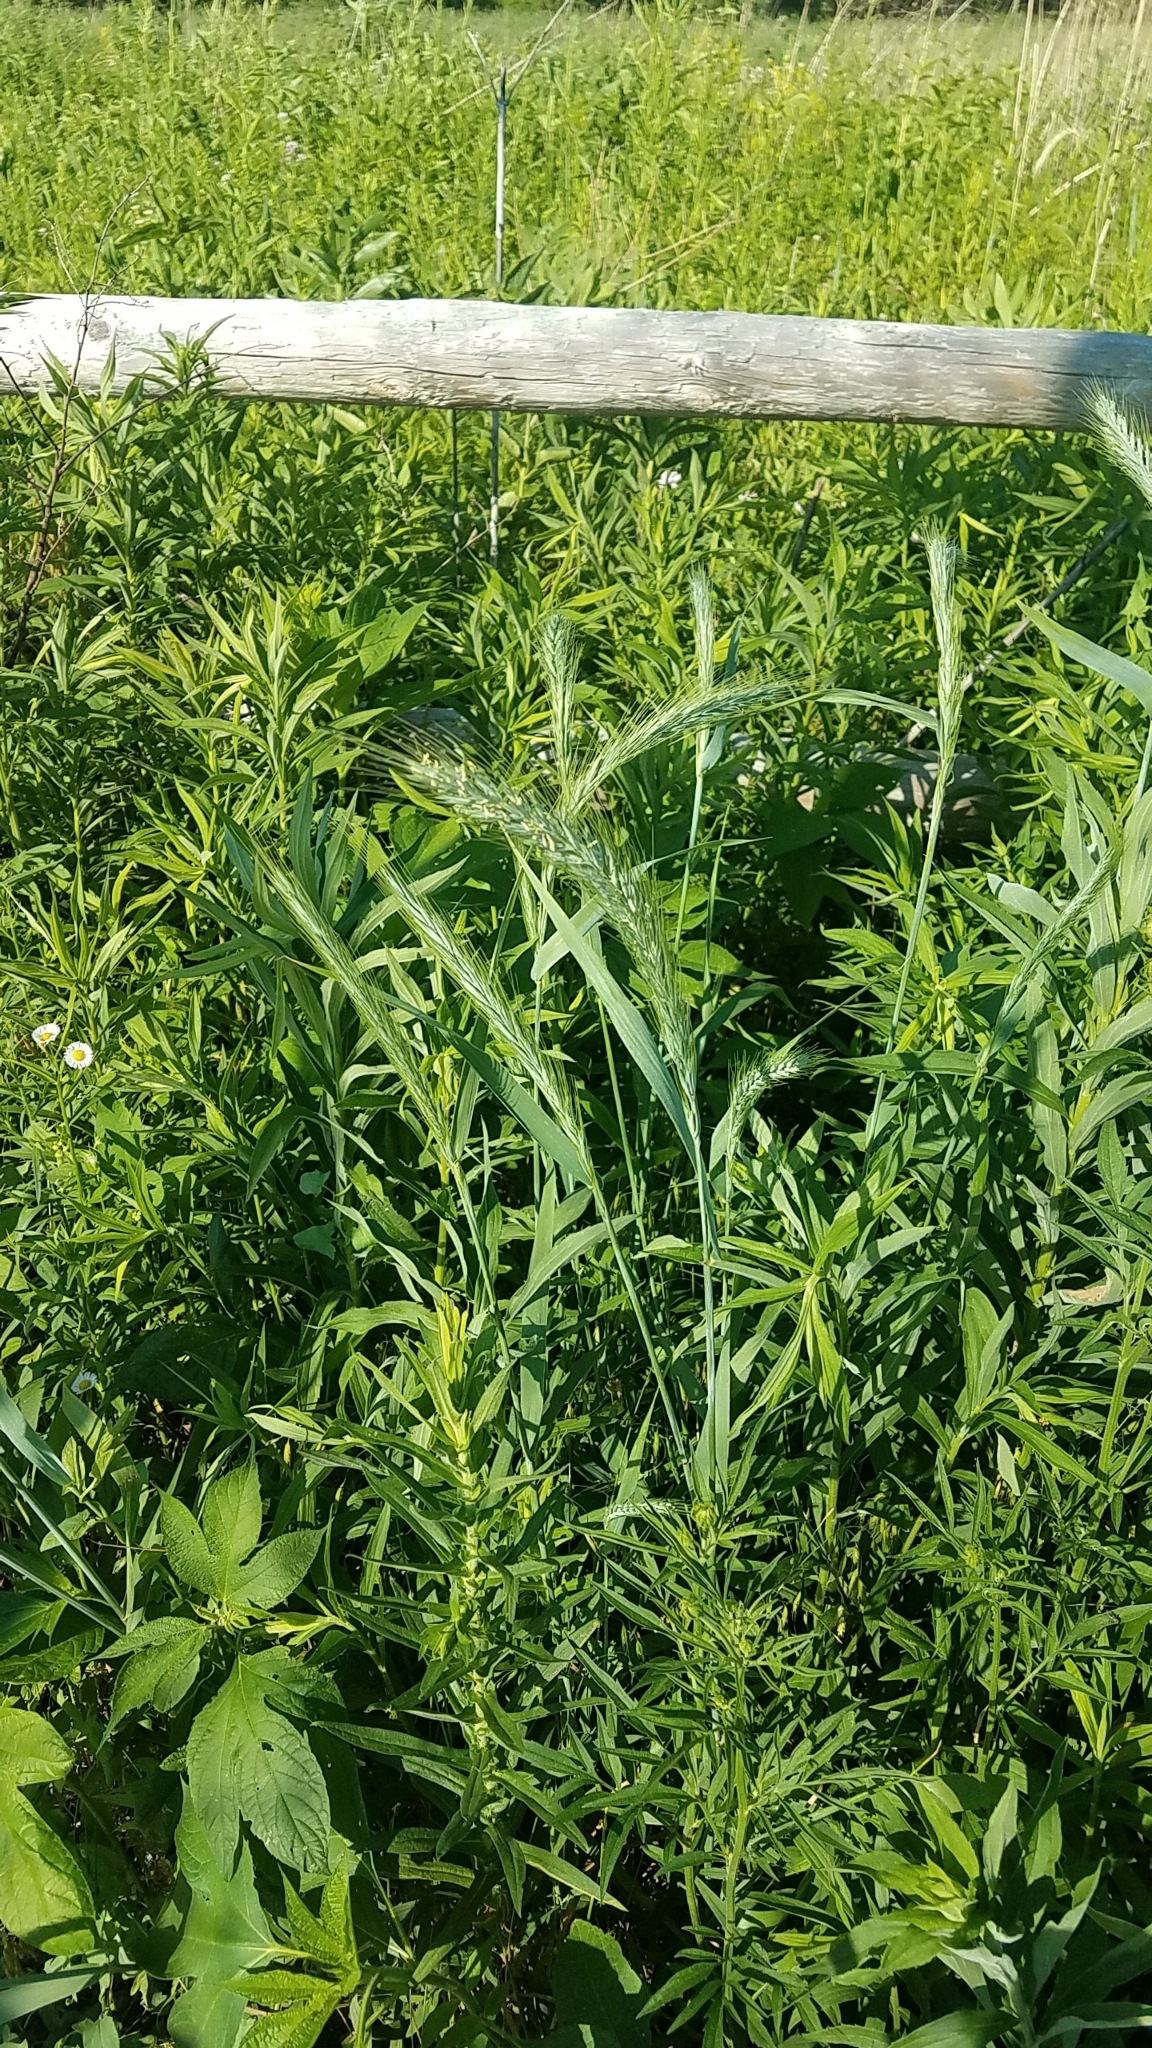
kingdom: Plantae
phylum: Tracheophyta
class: Liliopsida
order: Poales
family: Poaceae
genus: Elymus
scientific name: Elymus canadensis
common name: Canada wild rye
